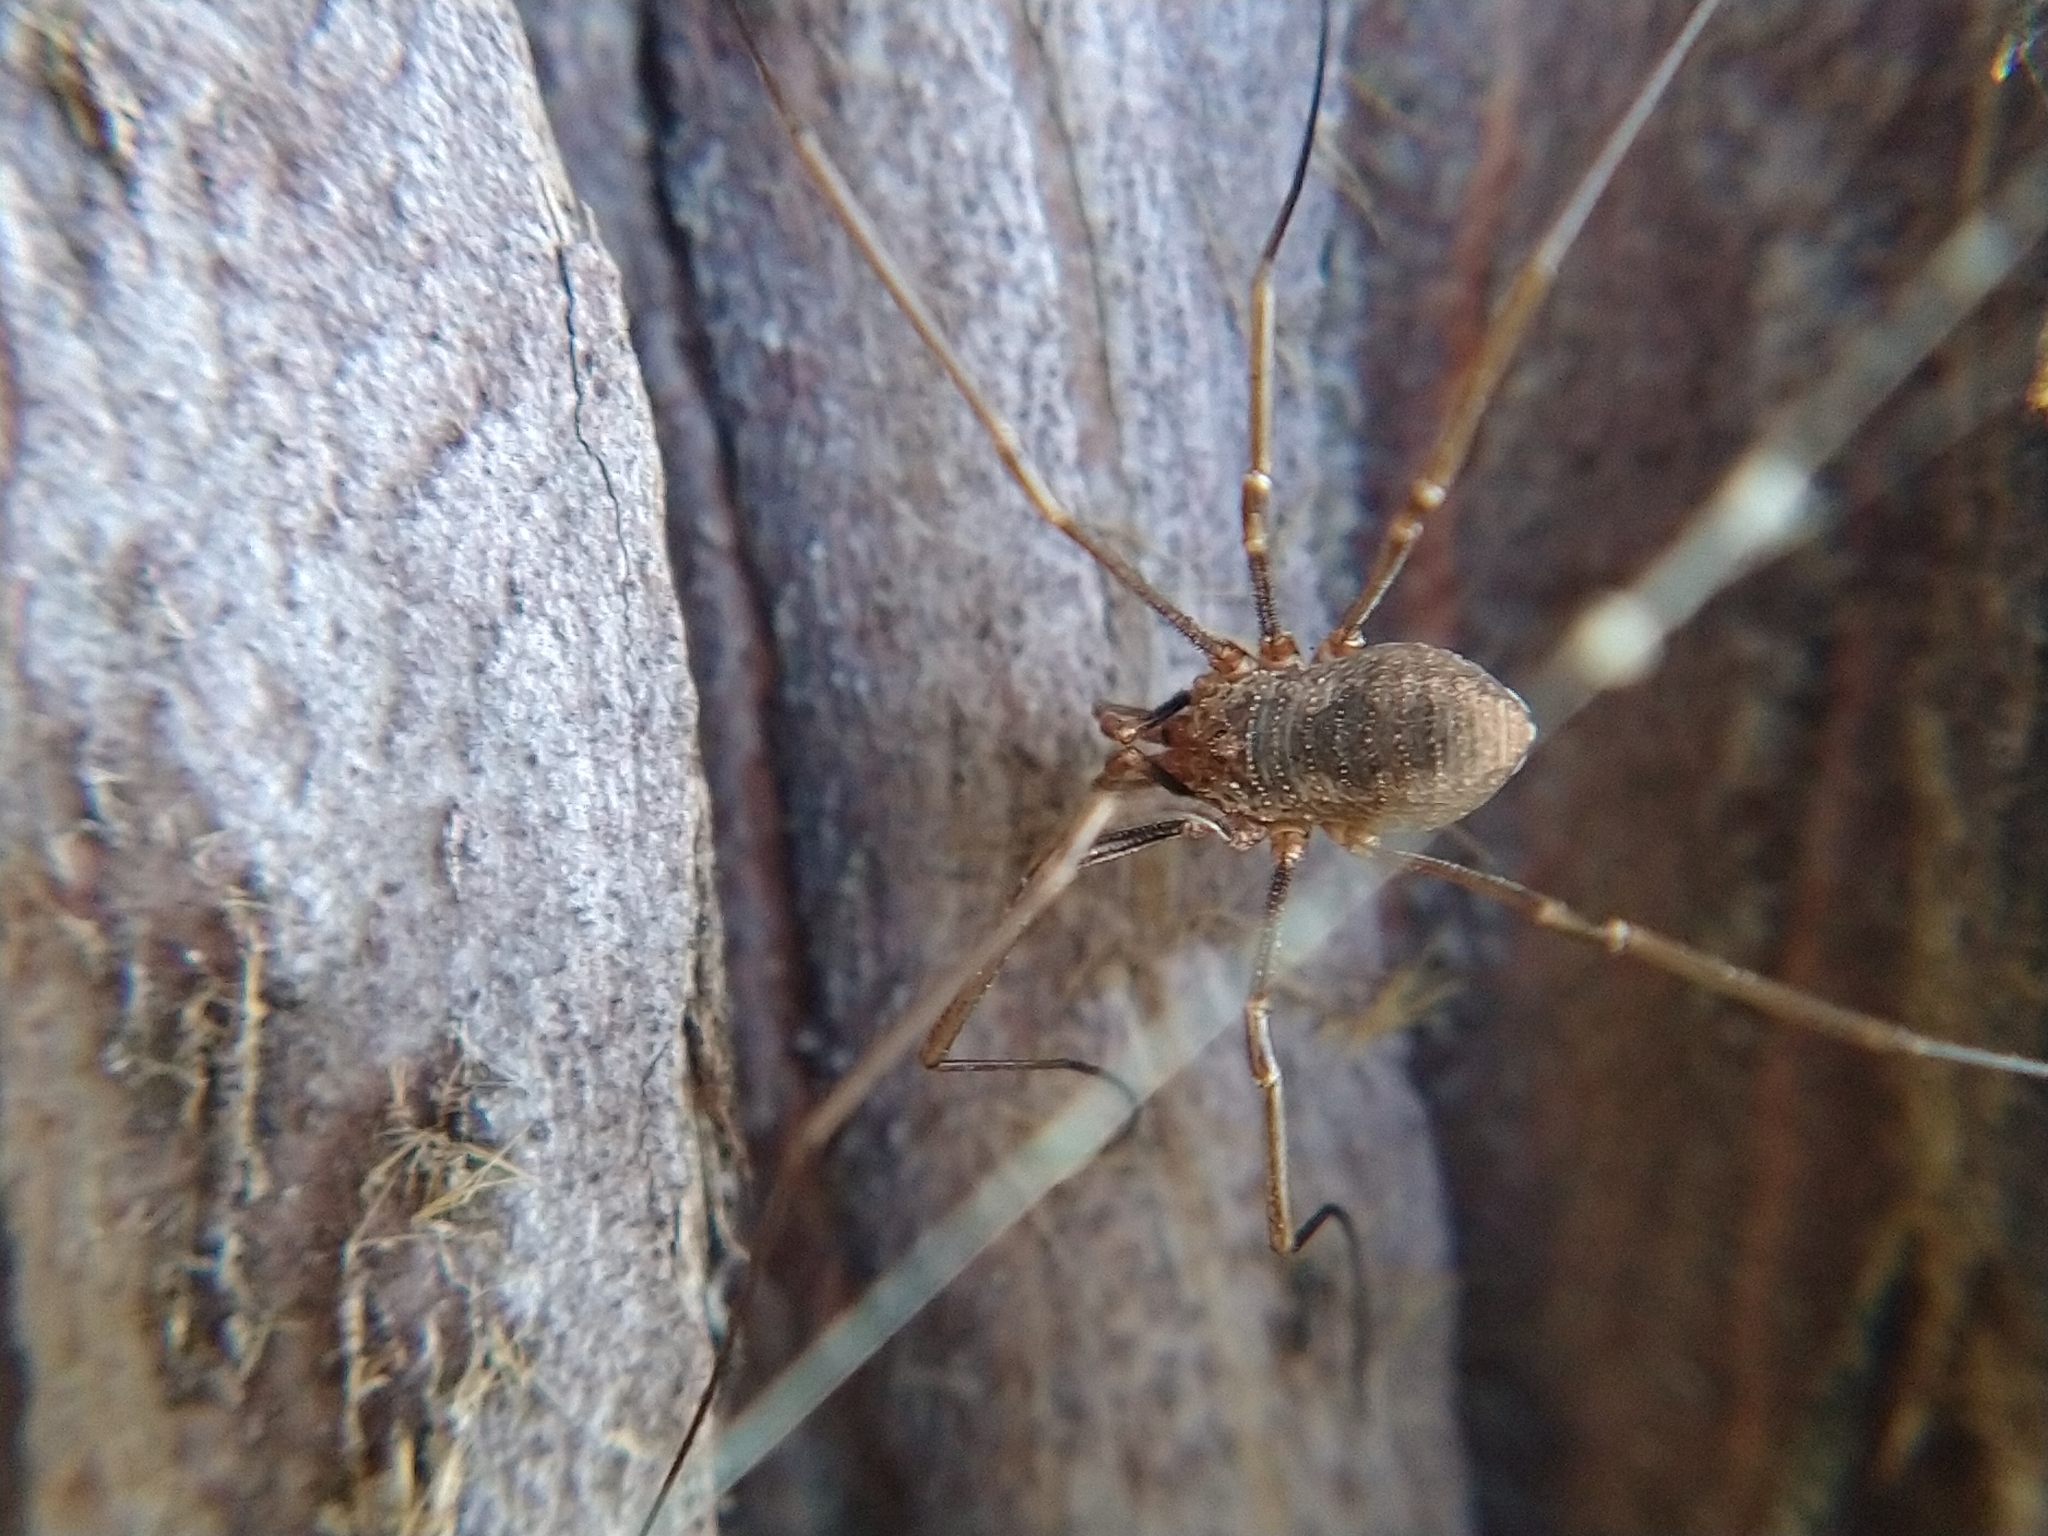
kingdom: Animalia
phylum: Arthropoda
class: Arachnida
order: Opiliones
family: Phalangiidae
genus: Phalangium
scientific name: Phalangium opilio
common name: Daddy longleg
